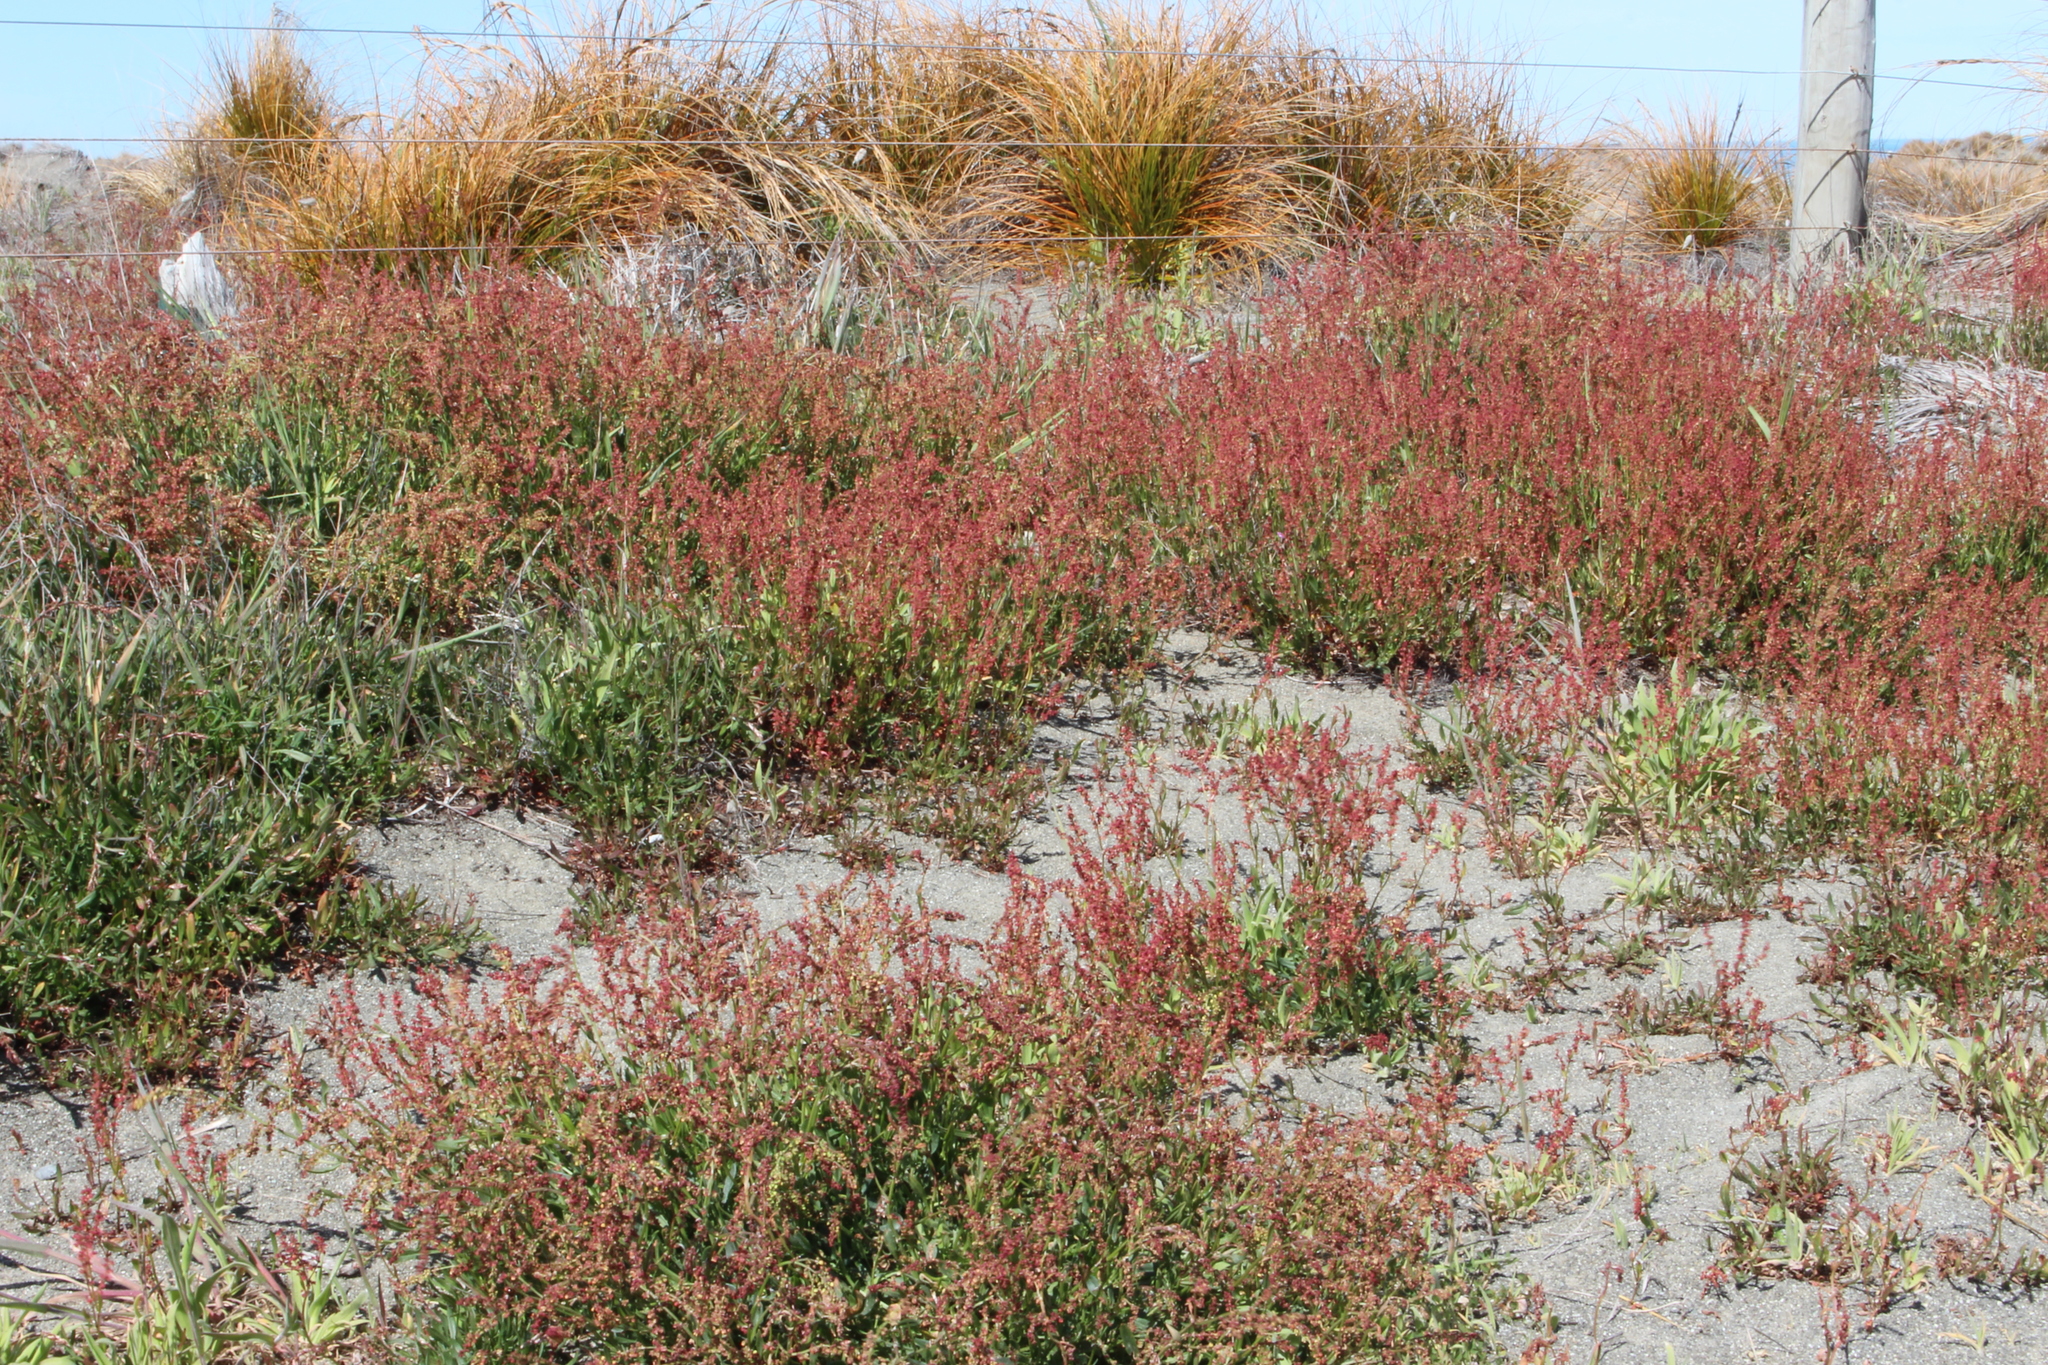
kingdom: Plantae
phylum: Tracheophyta
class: Magnoliopsida
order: Caryophyllales
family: Polygonaceae
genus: Rumex
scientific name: Rumex acetosella
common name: Common sheep sorrel
